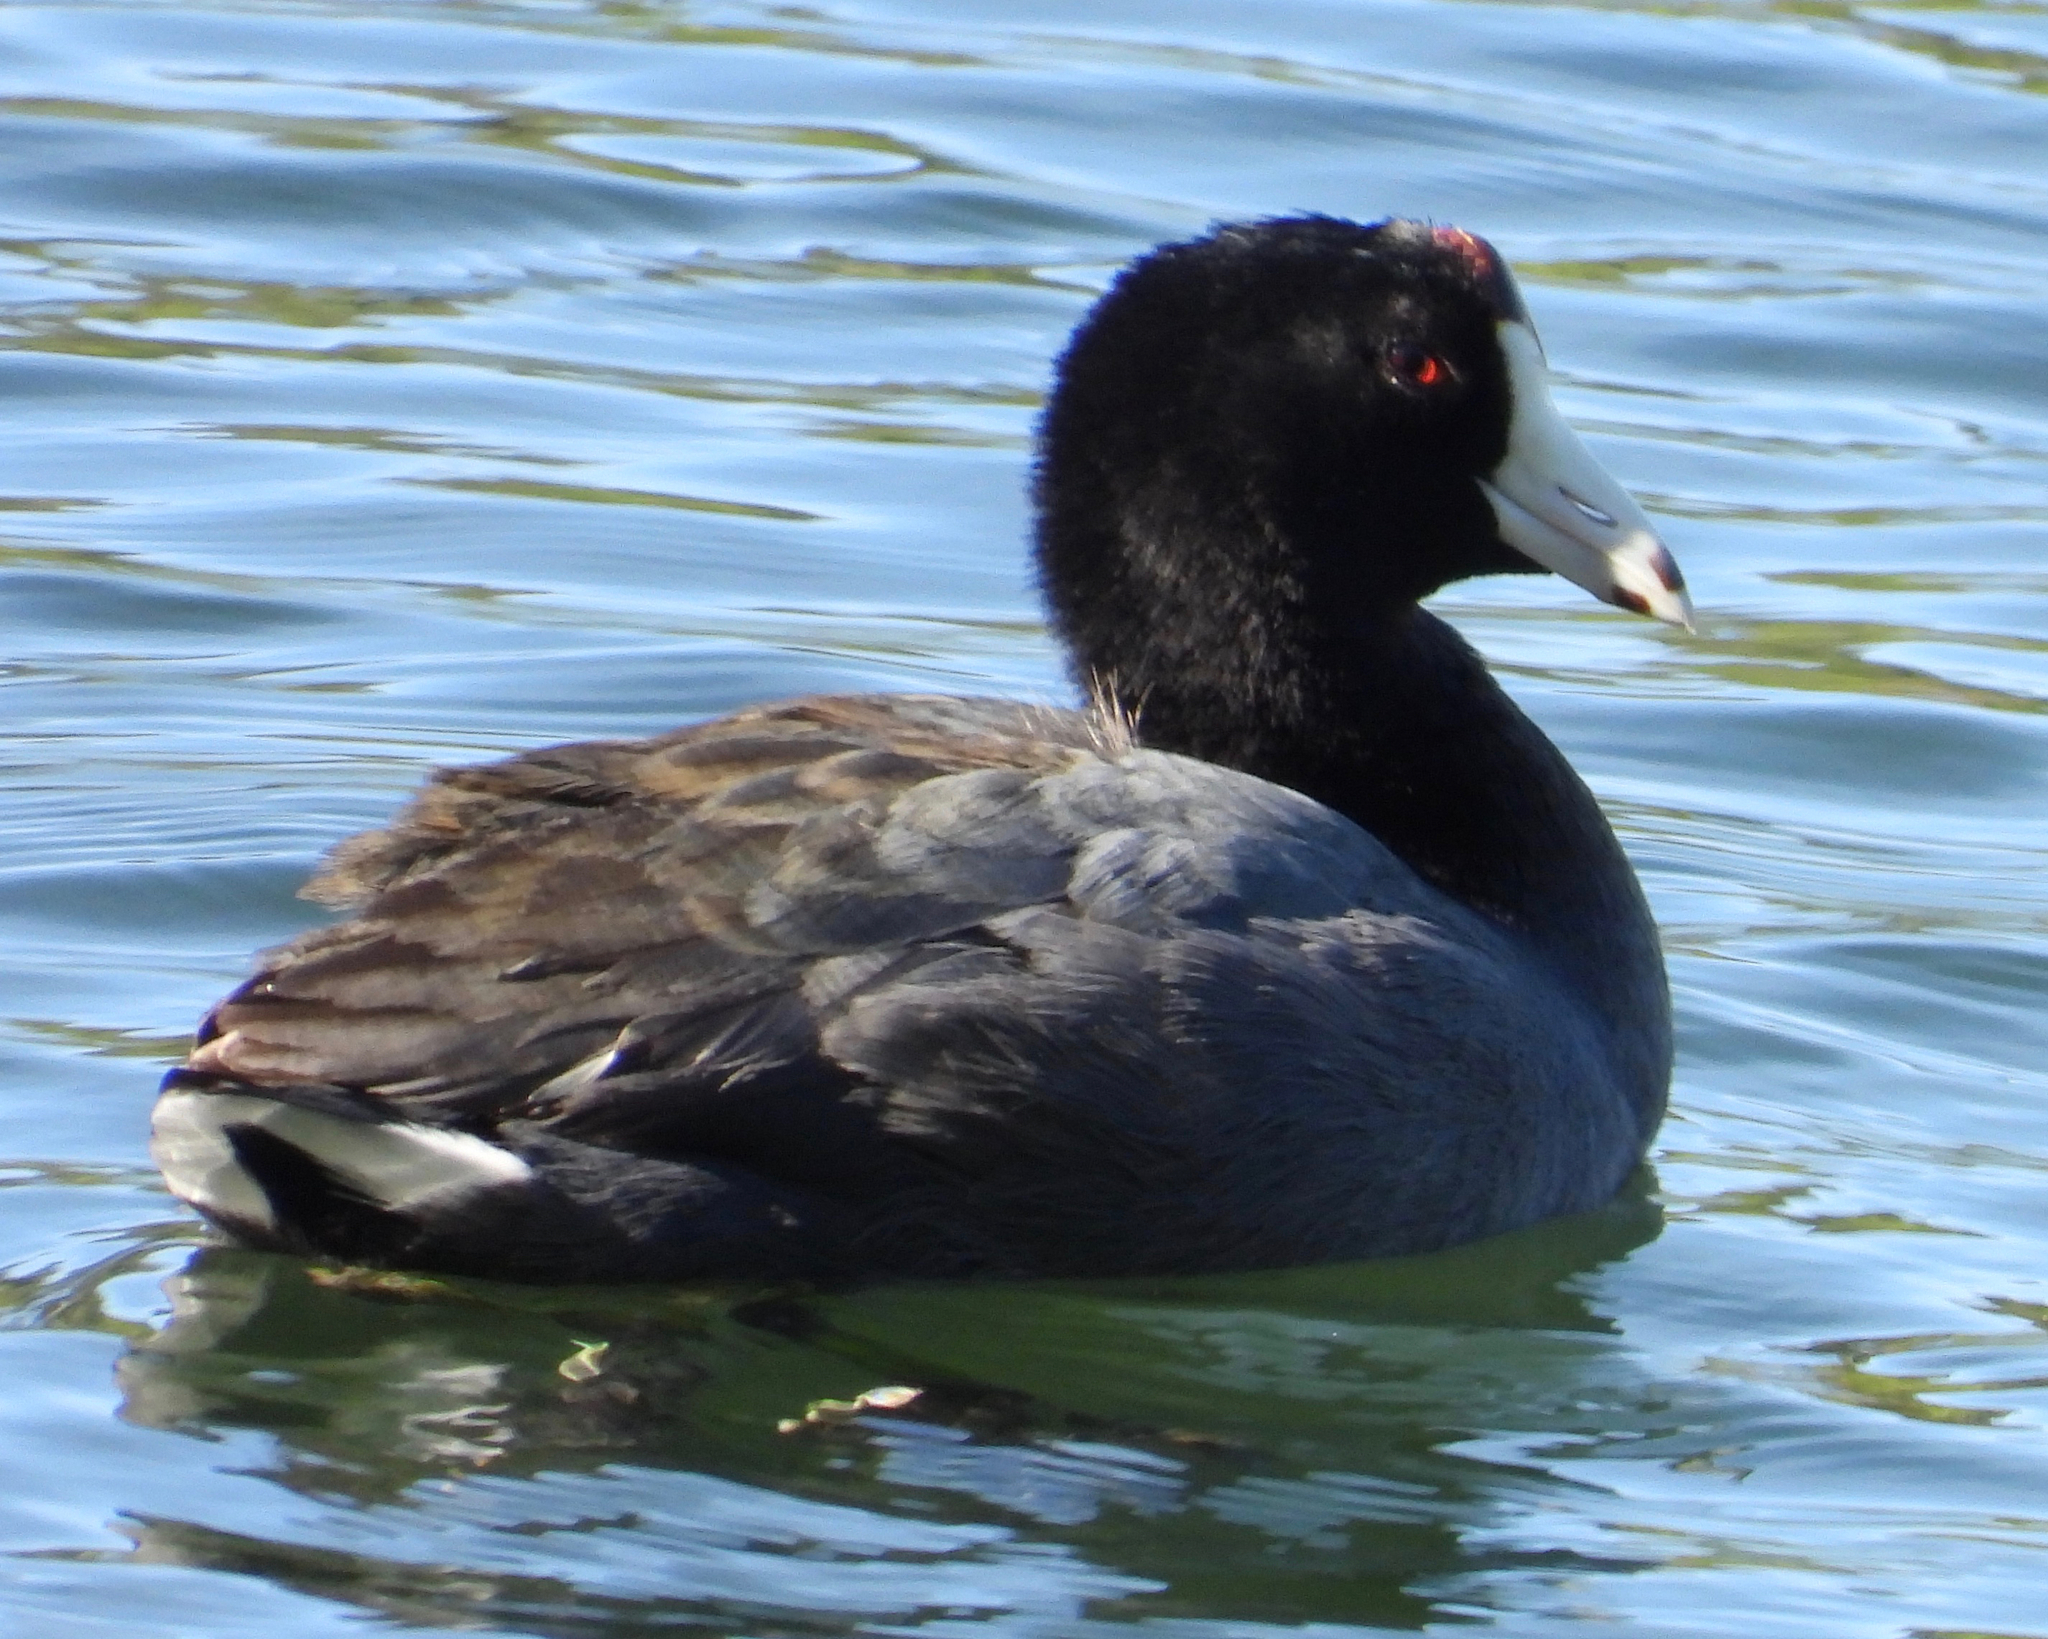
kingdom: Animalia
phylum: Chordata
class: Aves
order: Gruiformes
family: Rallidae
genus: Fulica
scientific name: Fulica americana
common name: American coot
